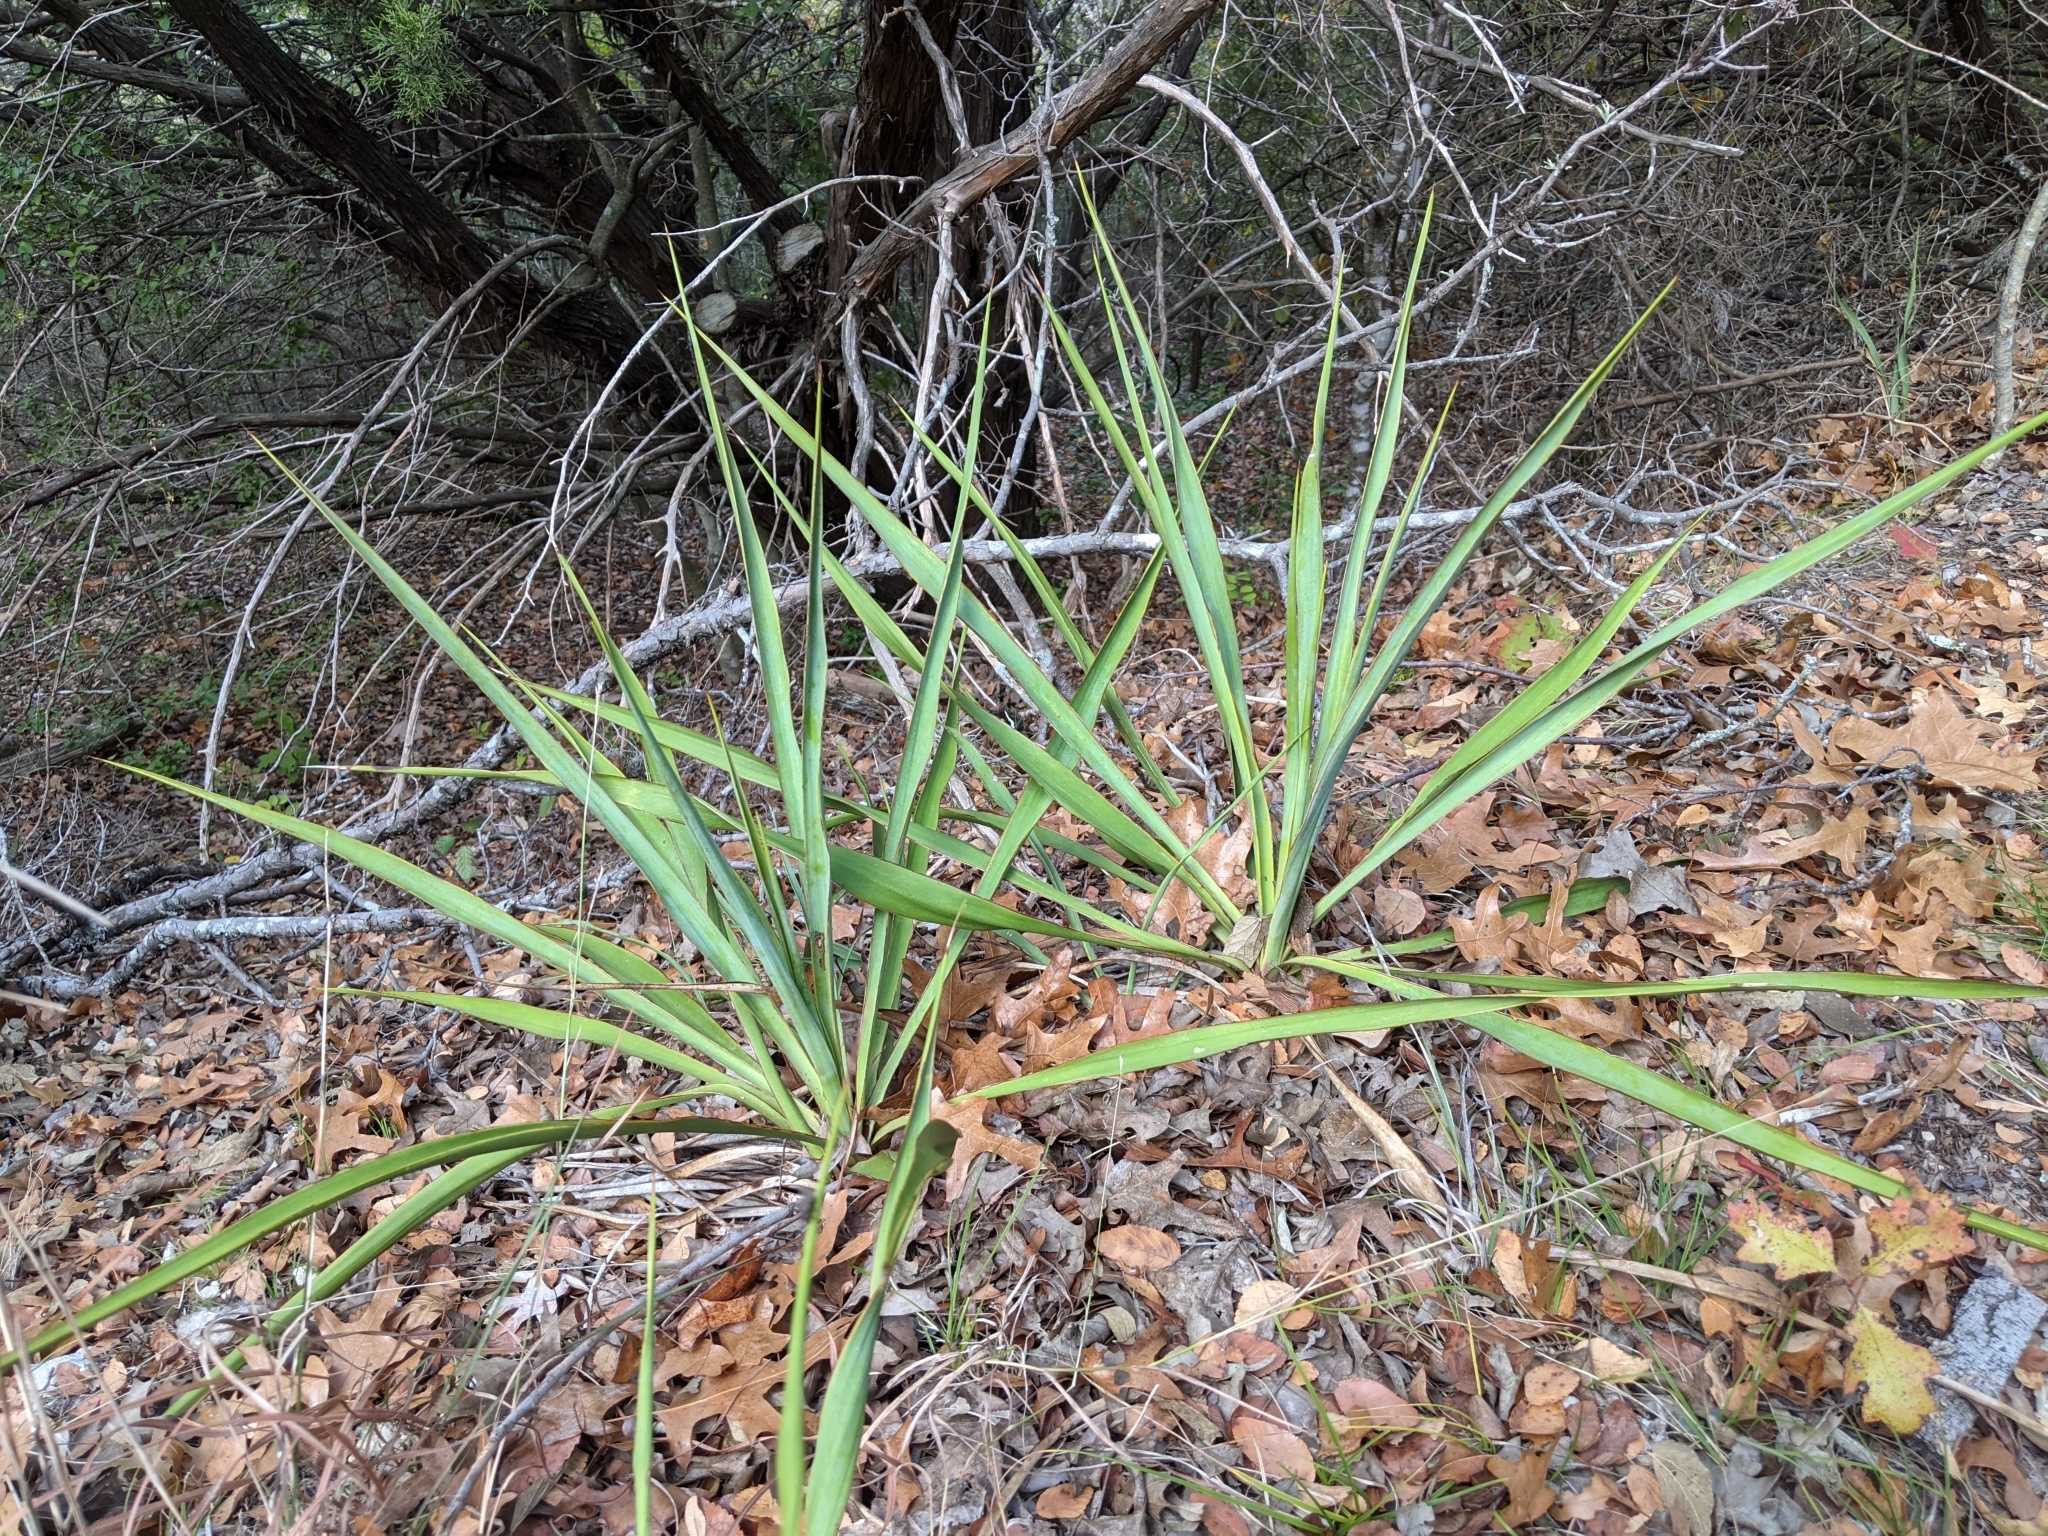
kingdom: Plantae
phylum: Tracheophyta
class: Liliopsida
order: Asparagales
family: Asparagaceae
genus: Yucca
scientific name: Yucca rupicola
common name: Twisted-leaf spanish-dagger
